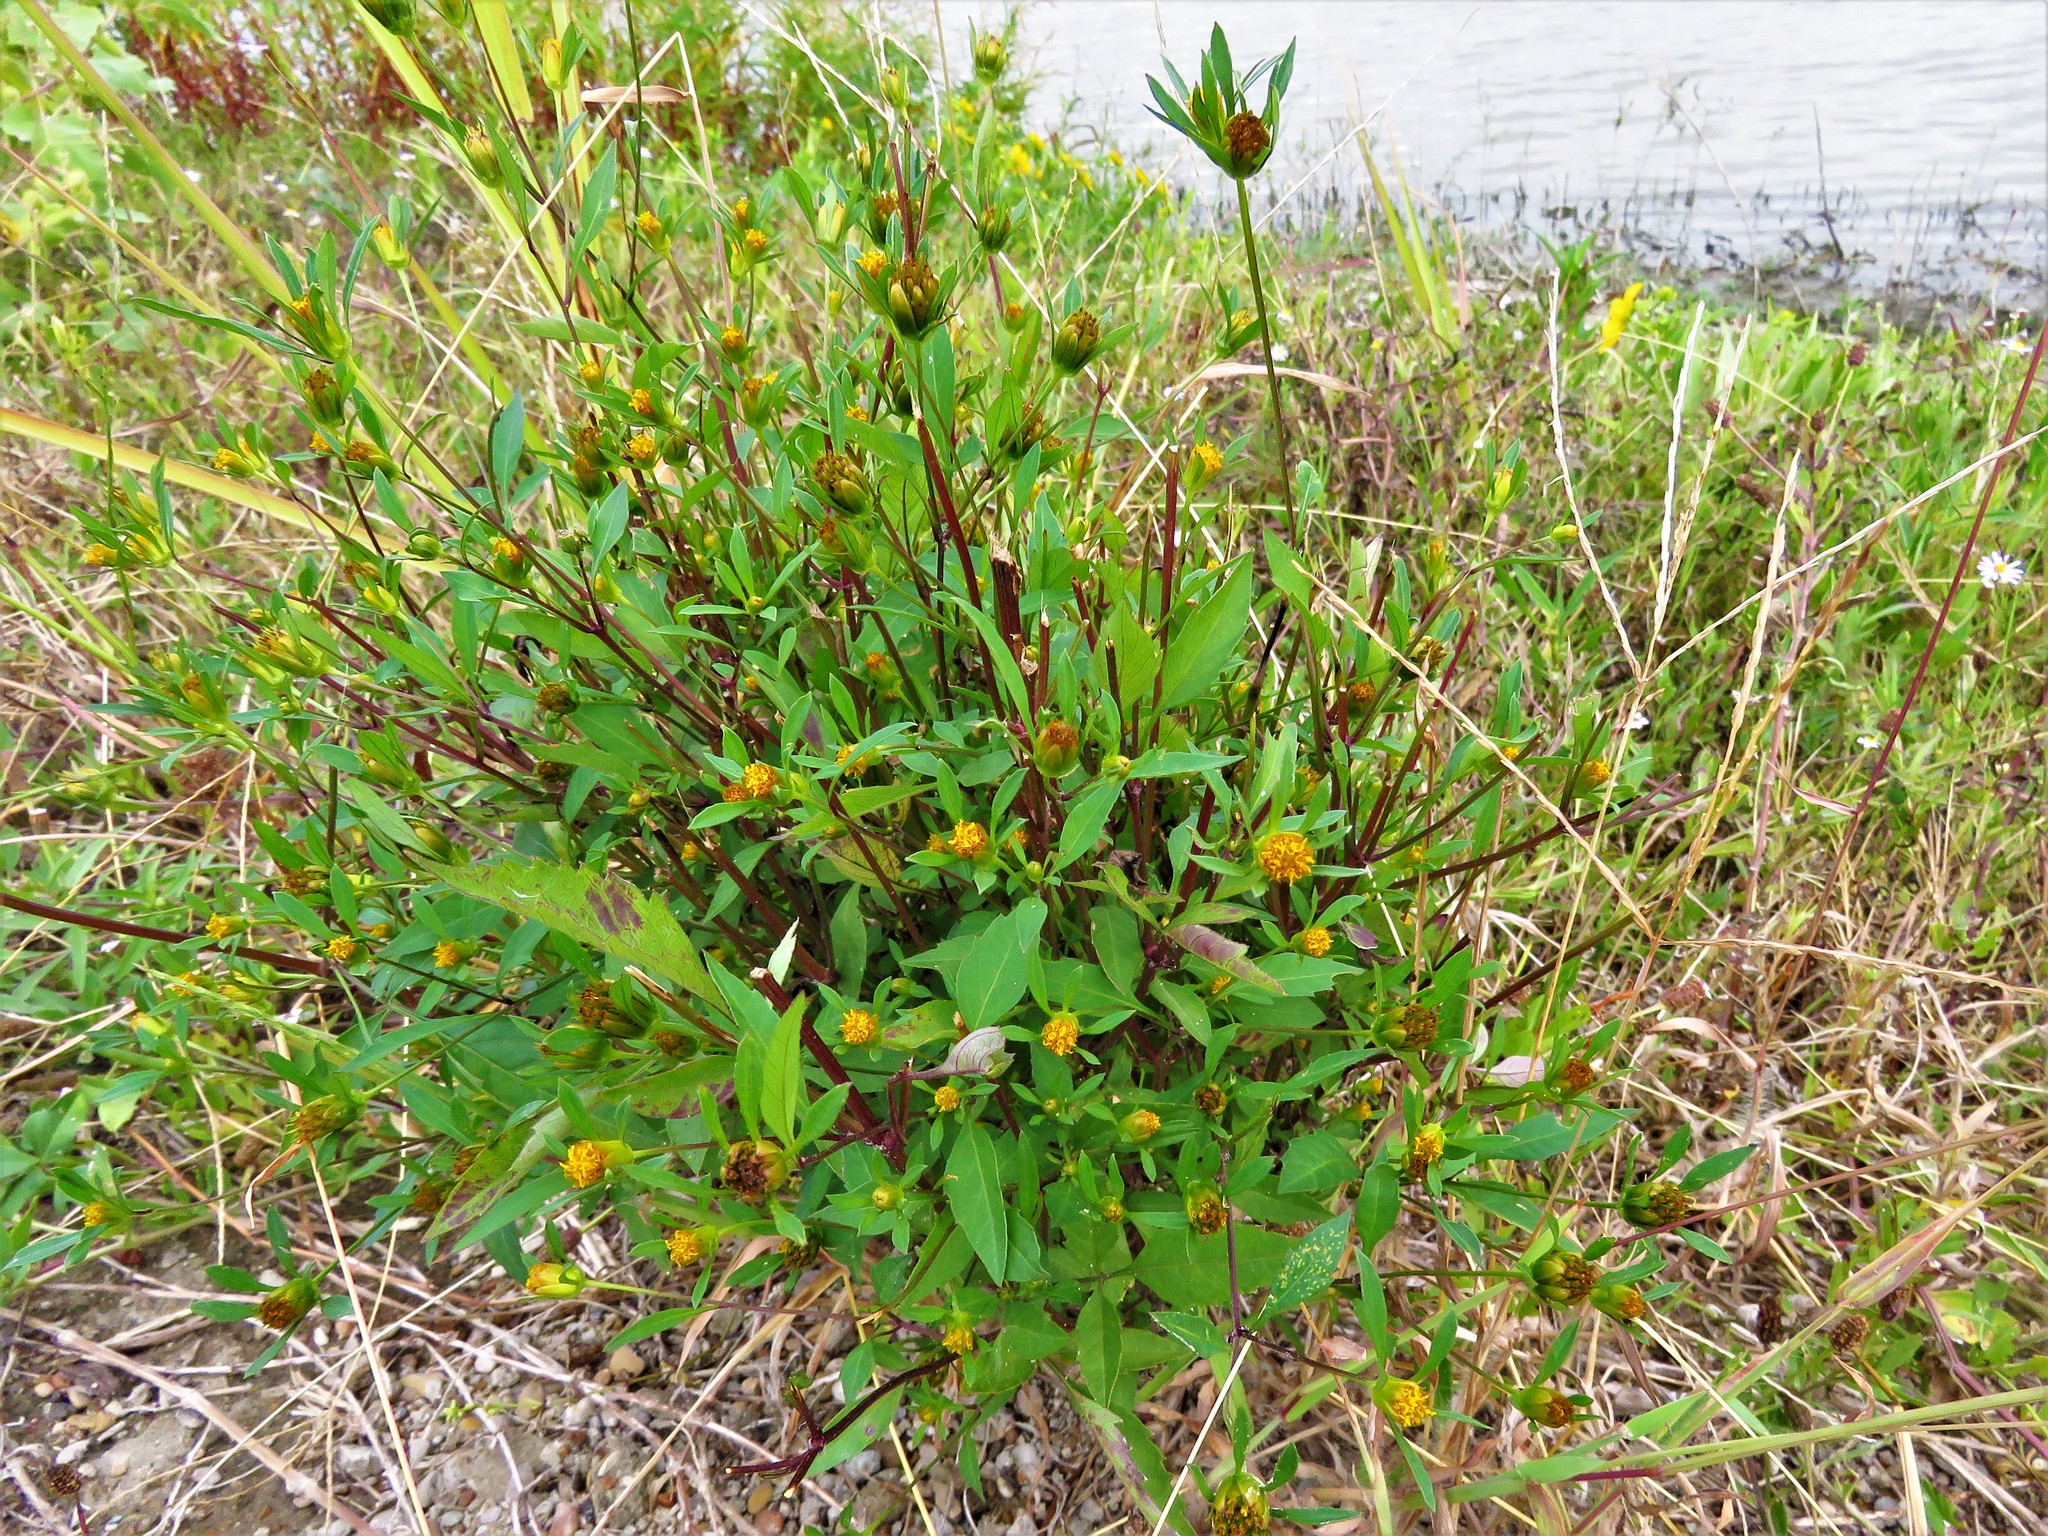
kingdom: Plantae
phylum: Tracheophyta
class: Magnoliopsida
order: Asterales
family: Asteraceae
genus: Bidens
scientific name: Bidens frondosa
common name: Beggarticks
